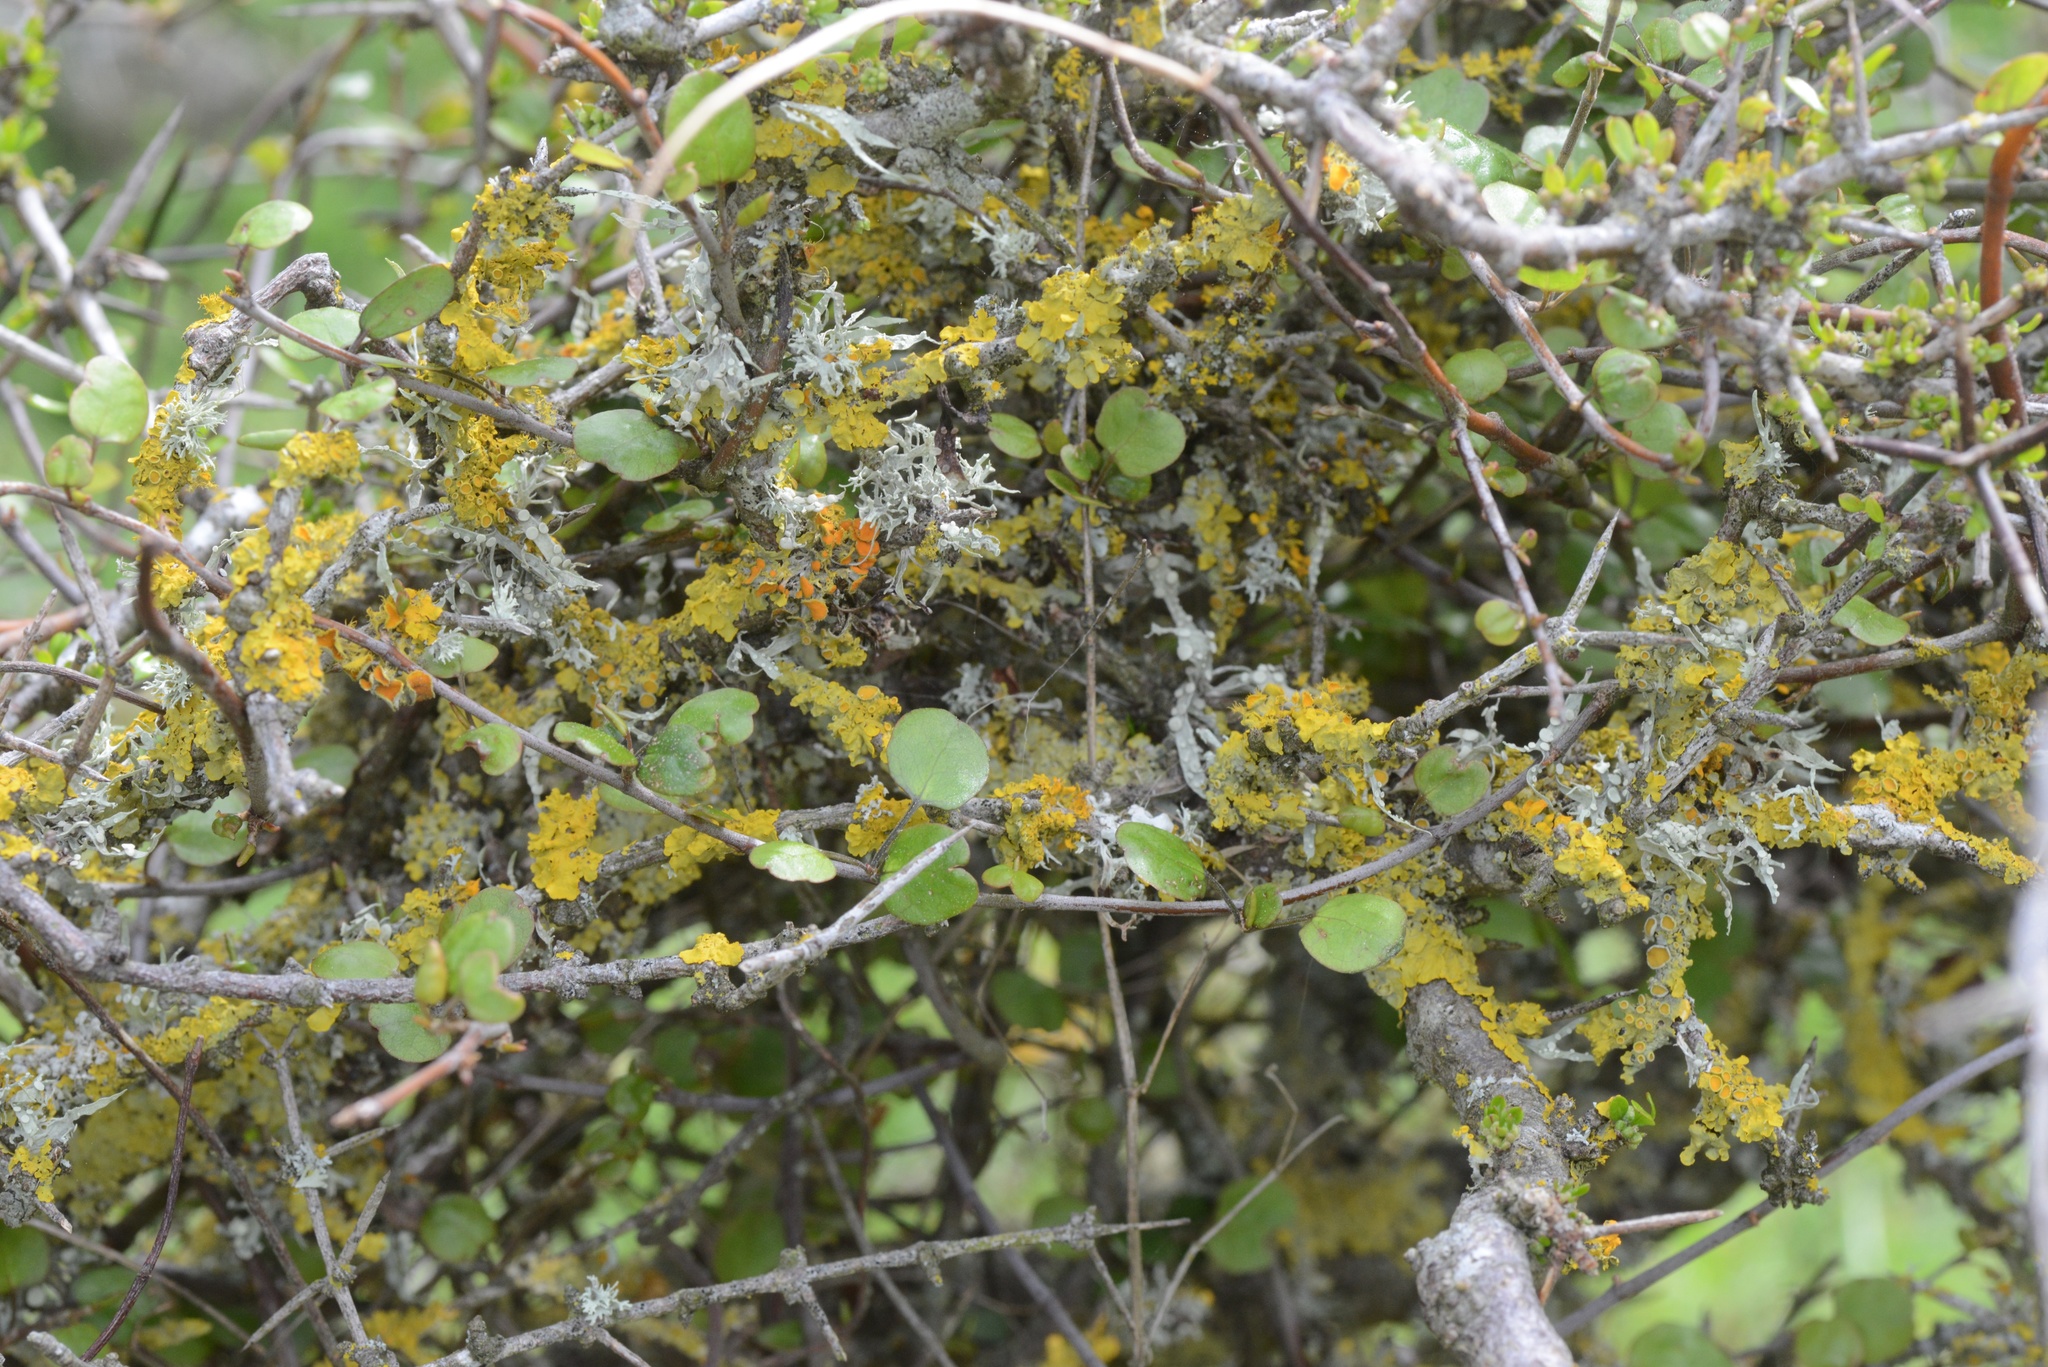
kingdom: Plantae
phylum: Tracheophyta
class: Magnoliopsida
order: Caryophyllales
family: Polygonaceae
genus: Muehlenbeckia
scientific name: Muehlenbeckia complexa
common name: Wireplant
